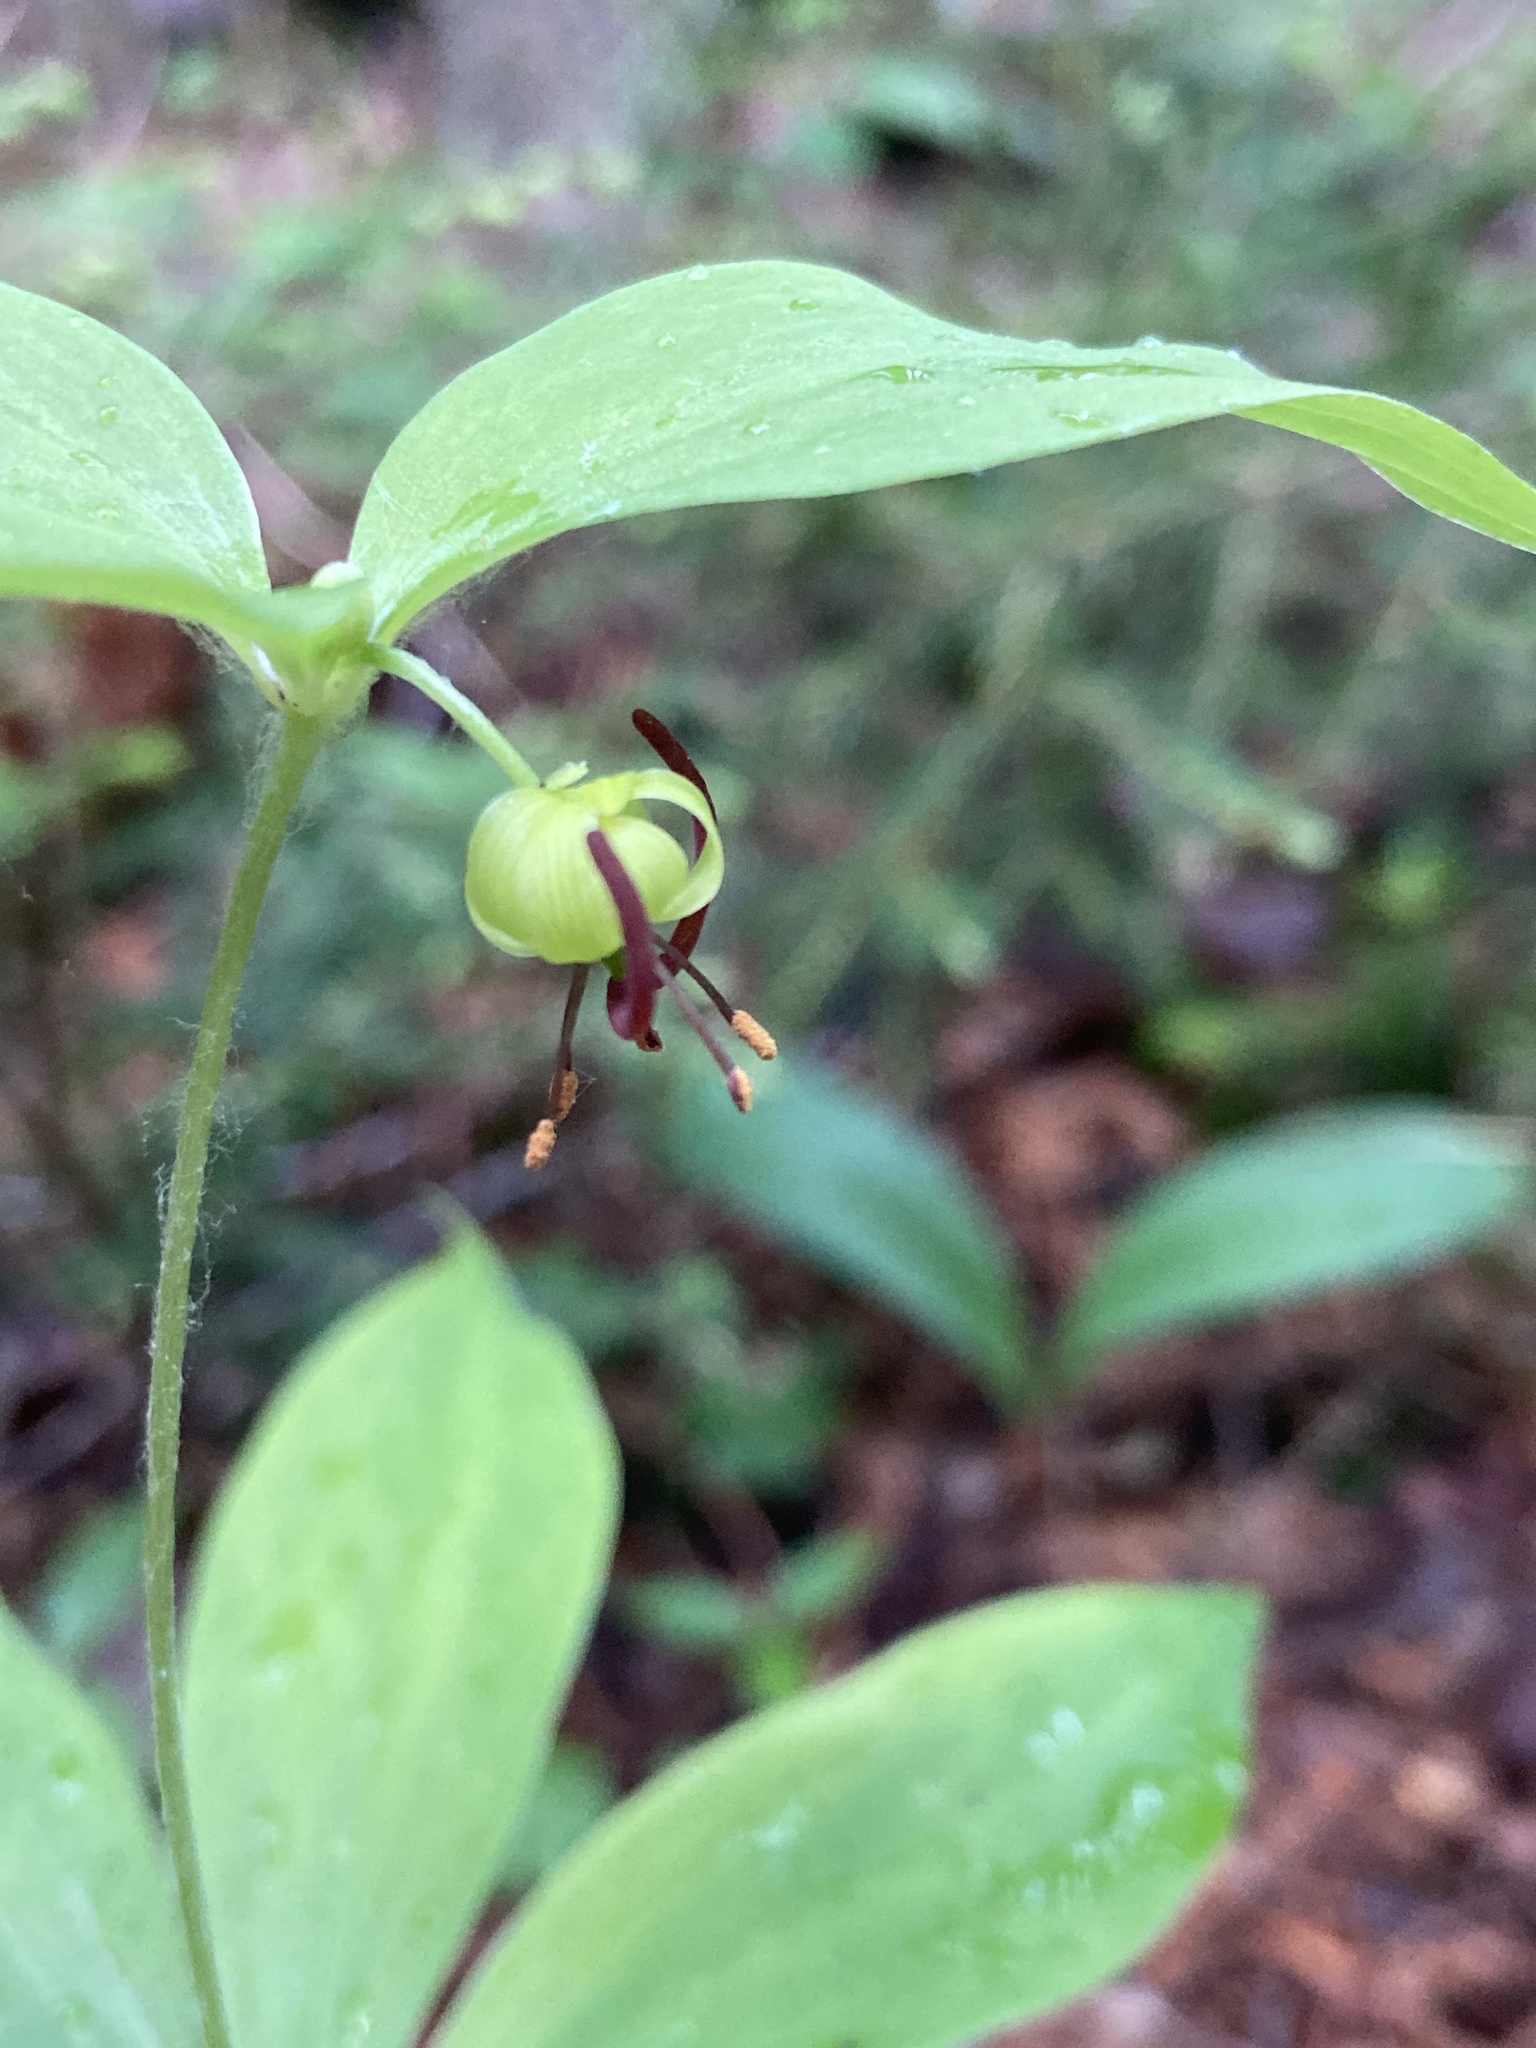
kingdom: Plantae
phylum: Tracheophyta
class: Liliopsida
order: Liliales
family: Liliaceae
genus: Medeola
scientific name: Medeola virginiana
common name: Indian cucumber-root
